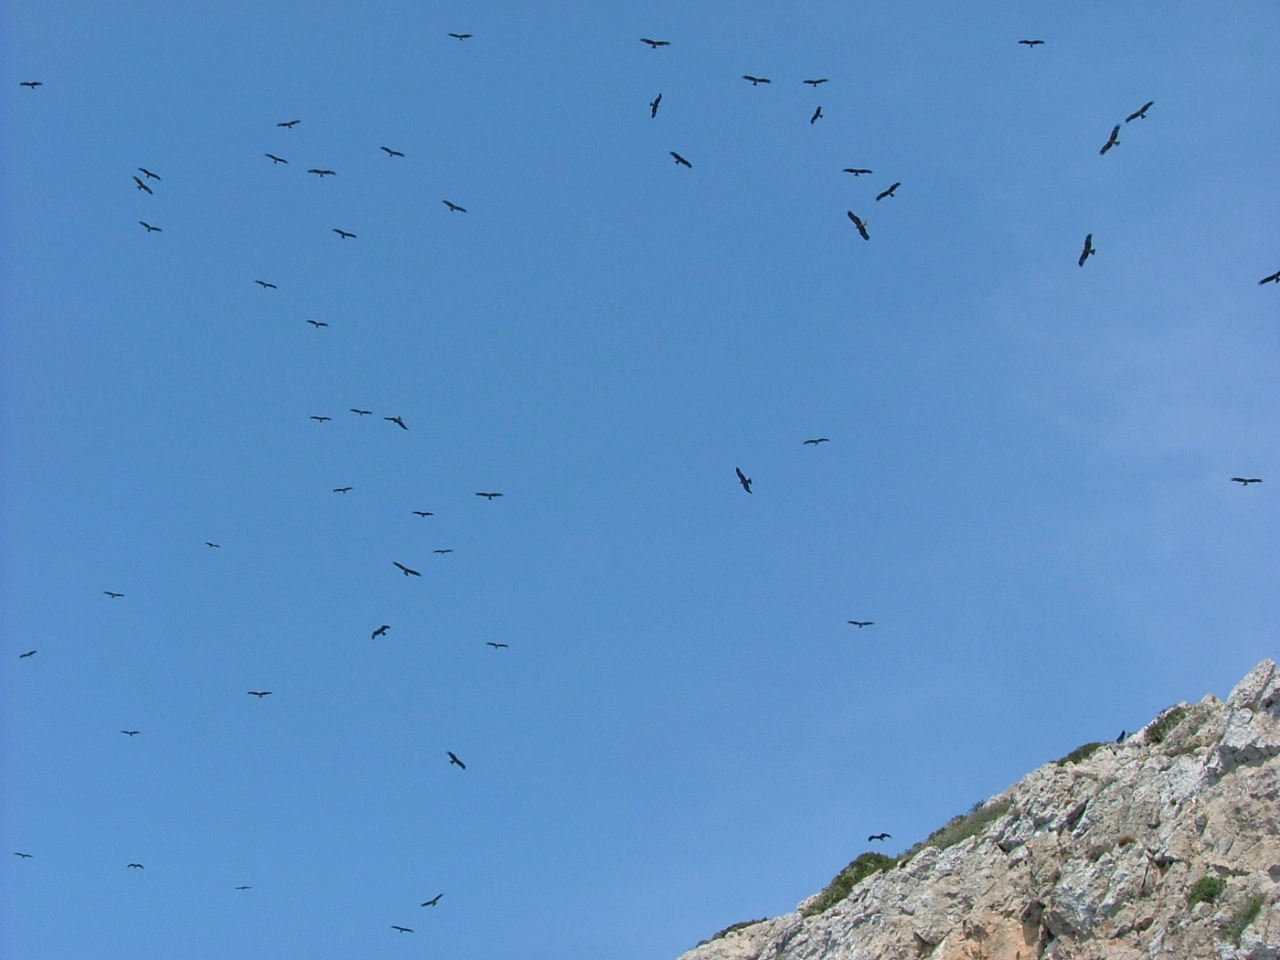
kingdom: Animalia
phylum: Chordata
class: Aves
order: Accipitriformes
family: Accipitridae
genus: Milvus
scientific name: Milvus migrans
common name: Black kite
